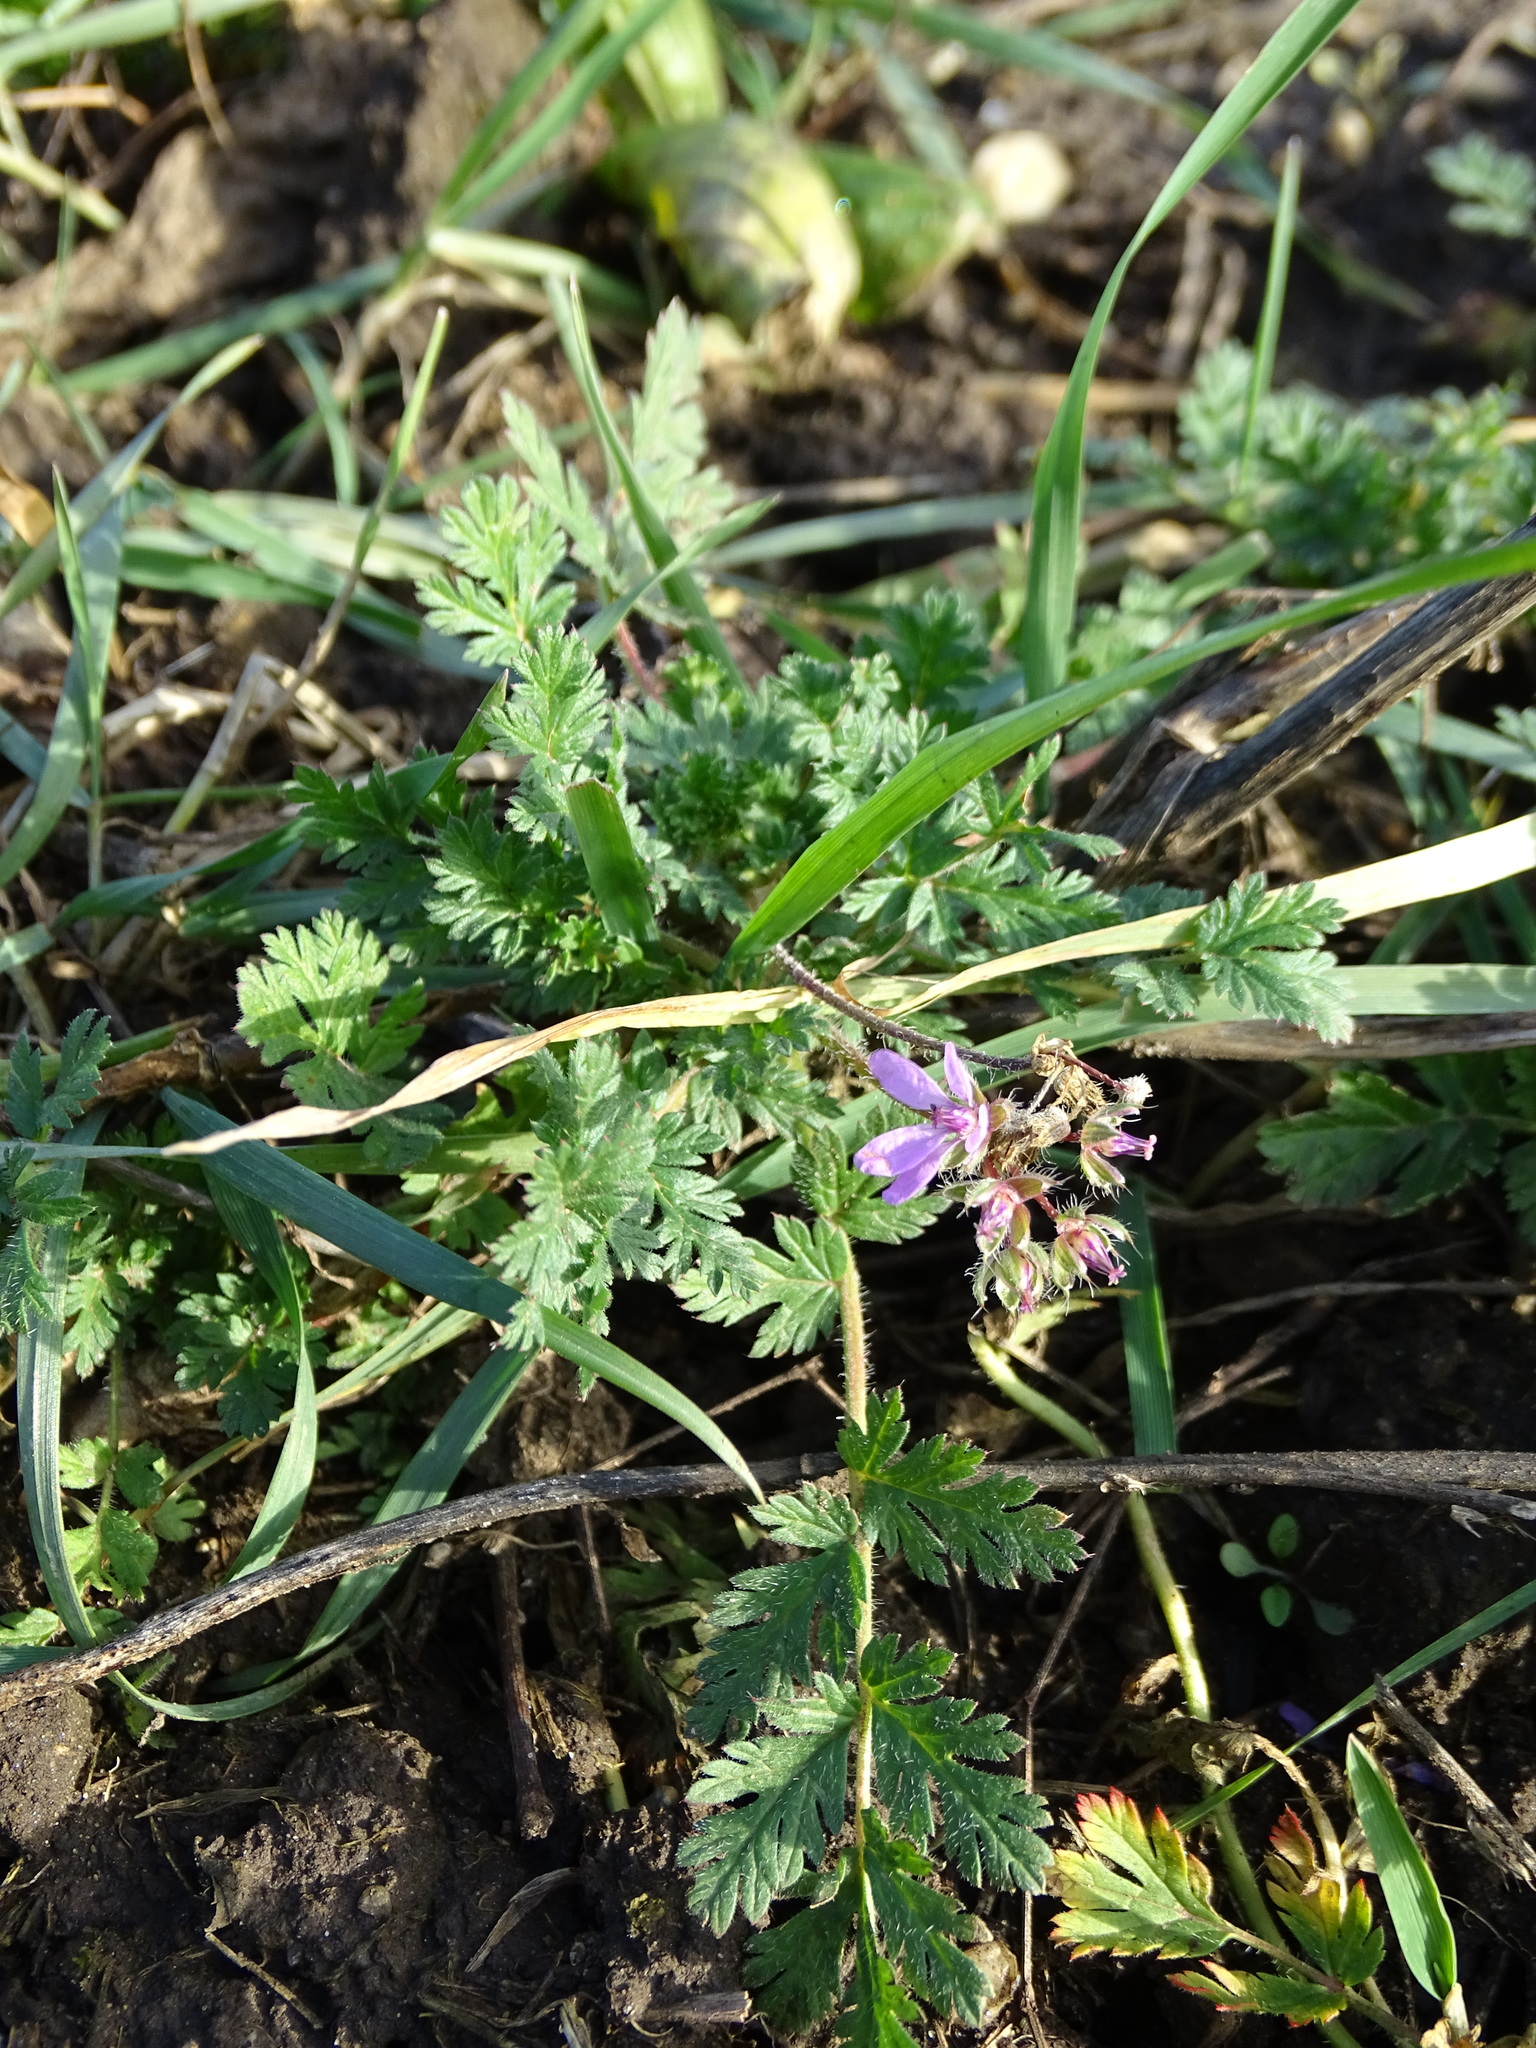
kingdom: Plantae
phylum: Tracheophyta
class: Magnoliopsida
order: Geraniales
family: Geraniaceae
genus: Erodium
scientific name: Erodium cicutarium
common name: Common stork's-bill
